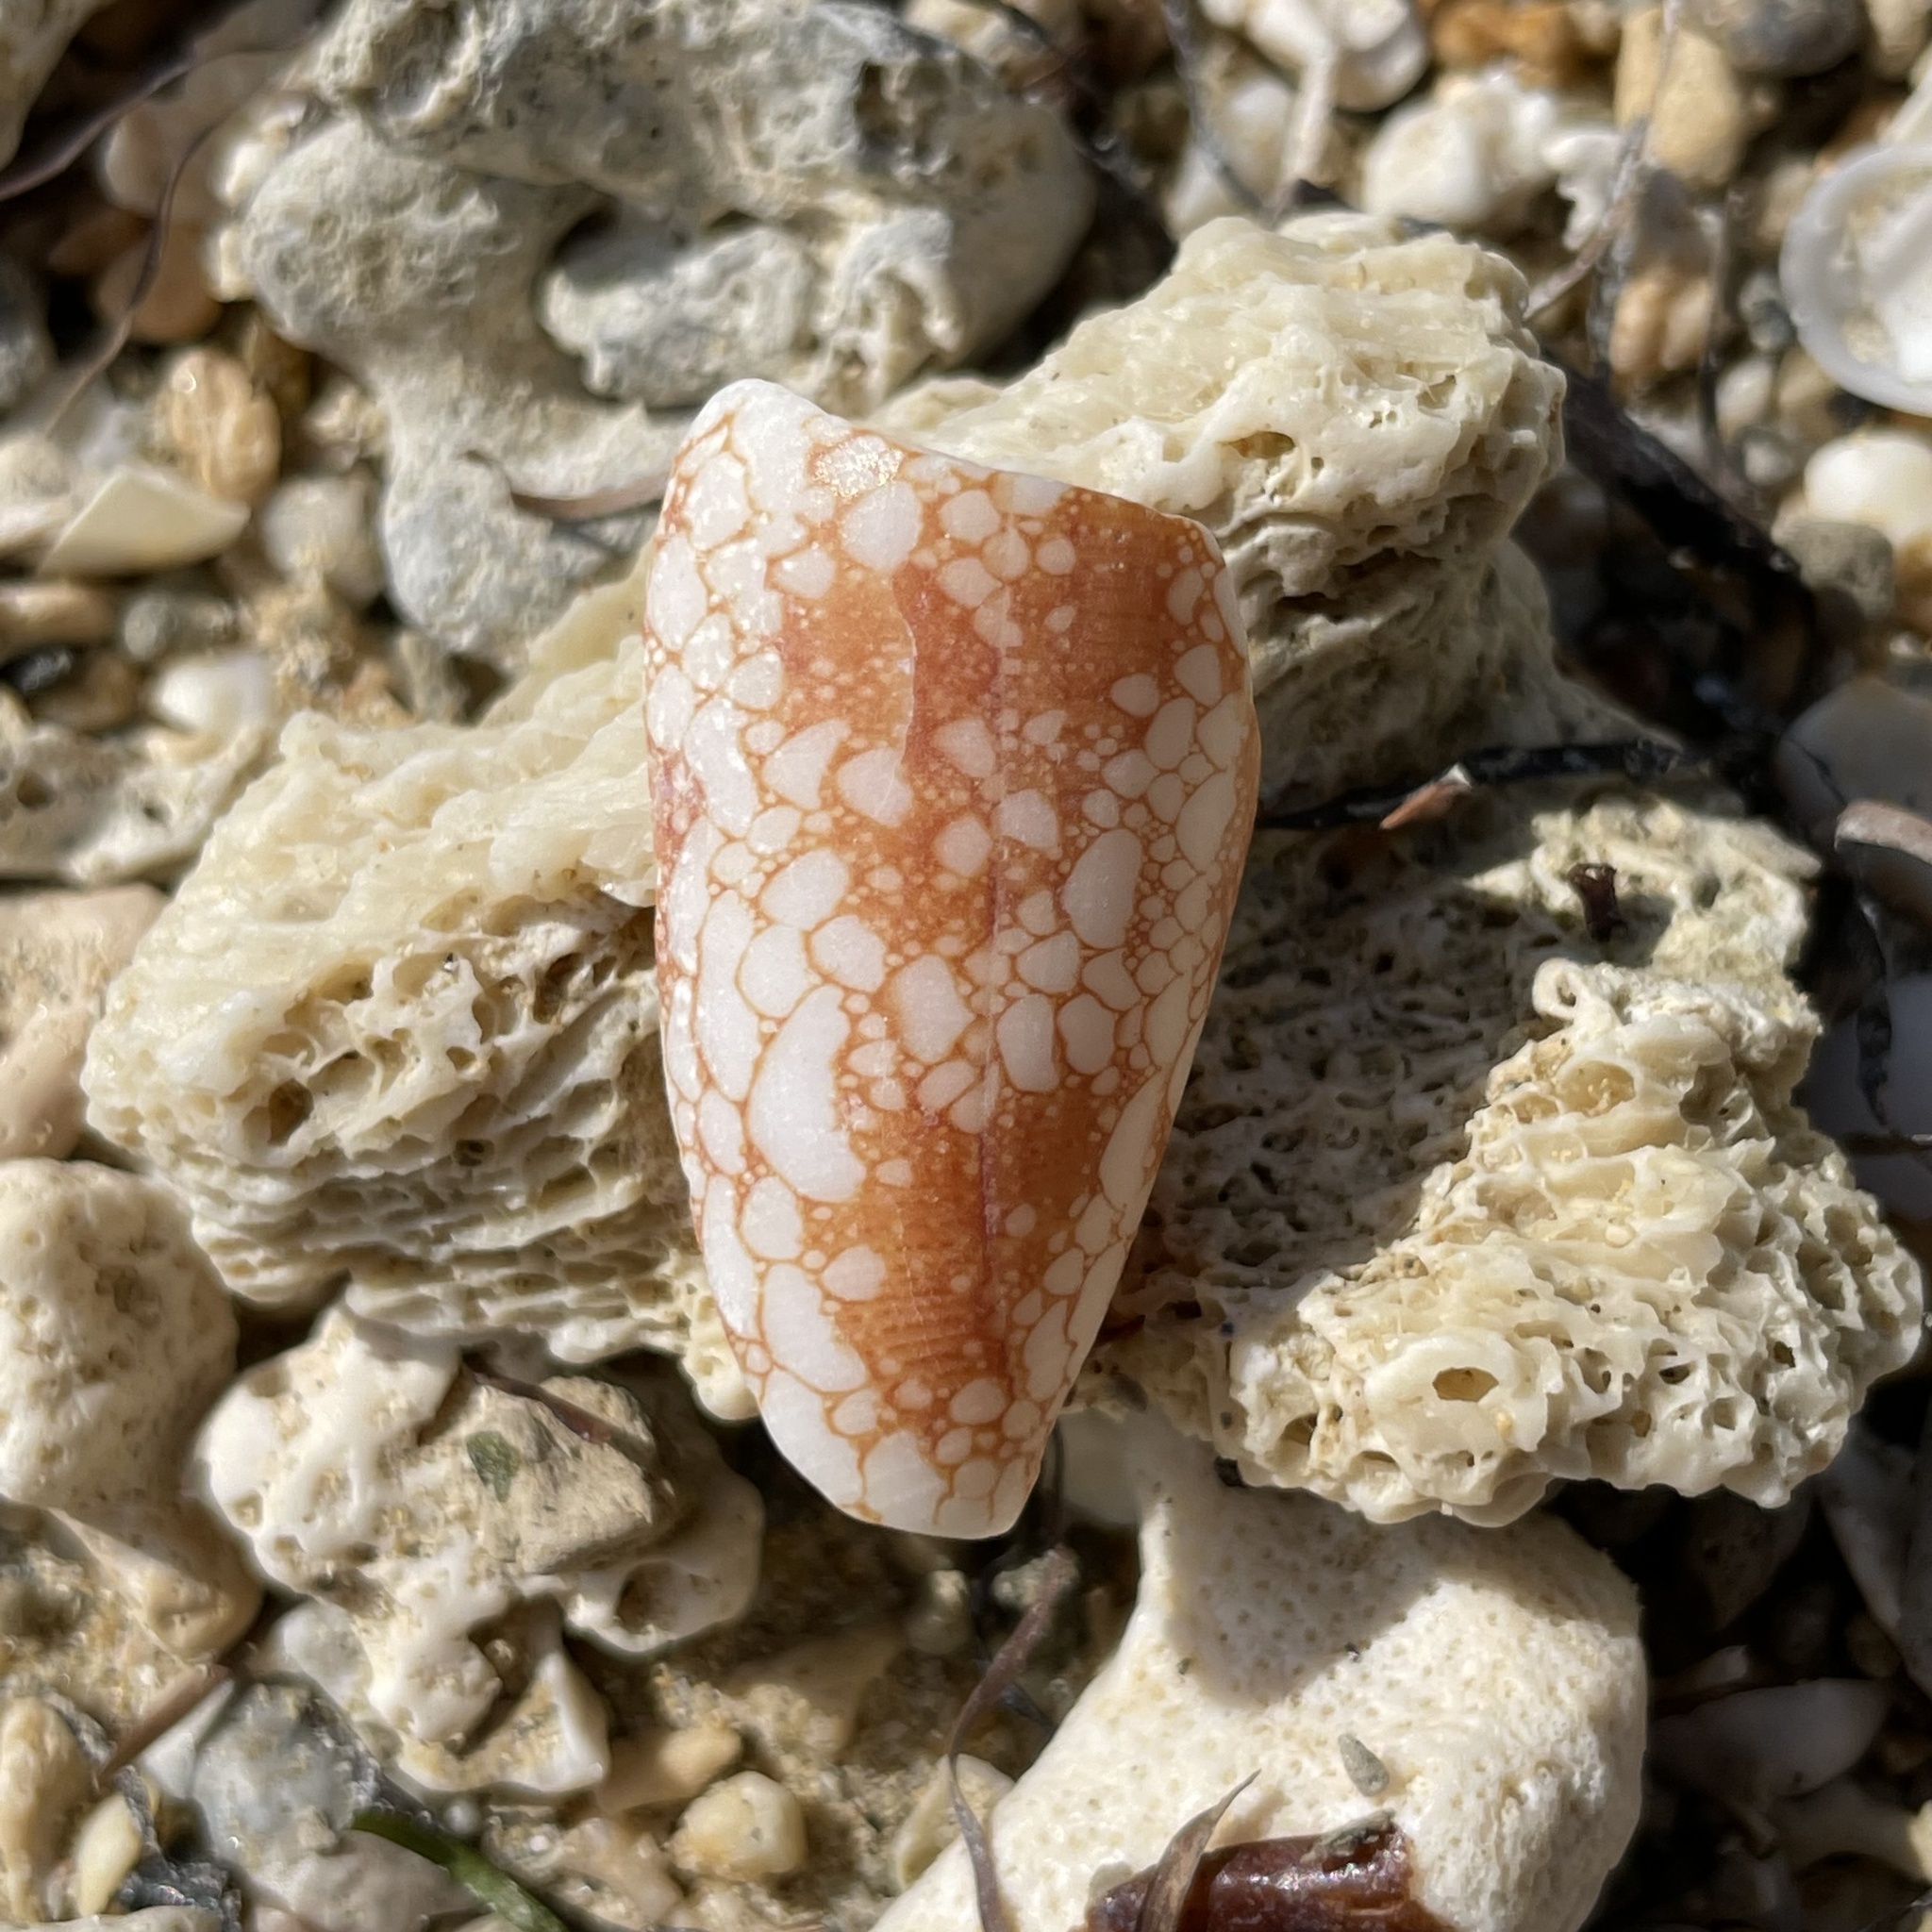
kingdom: Animalia
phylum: Mollusca
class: Gastropoda
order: Neogastropoda
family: Conidae
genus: Conus
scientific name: Conus omaria
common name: Omaria cone
